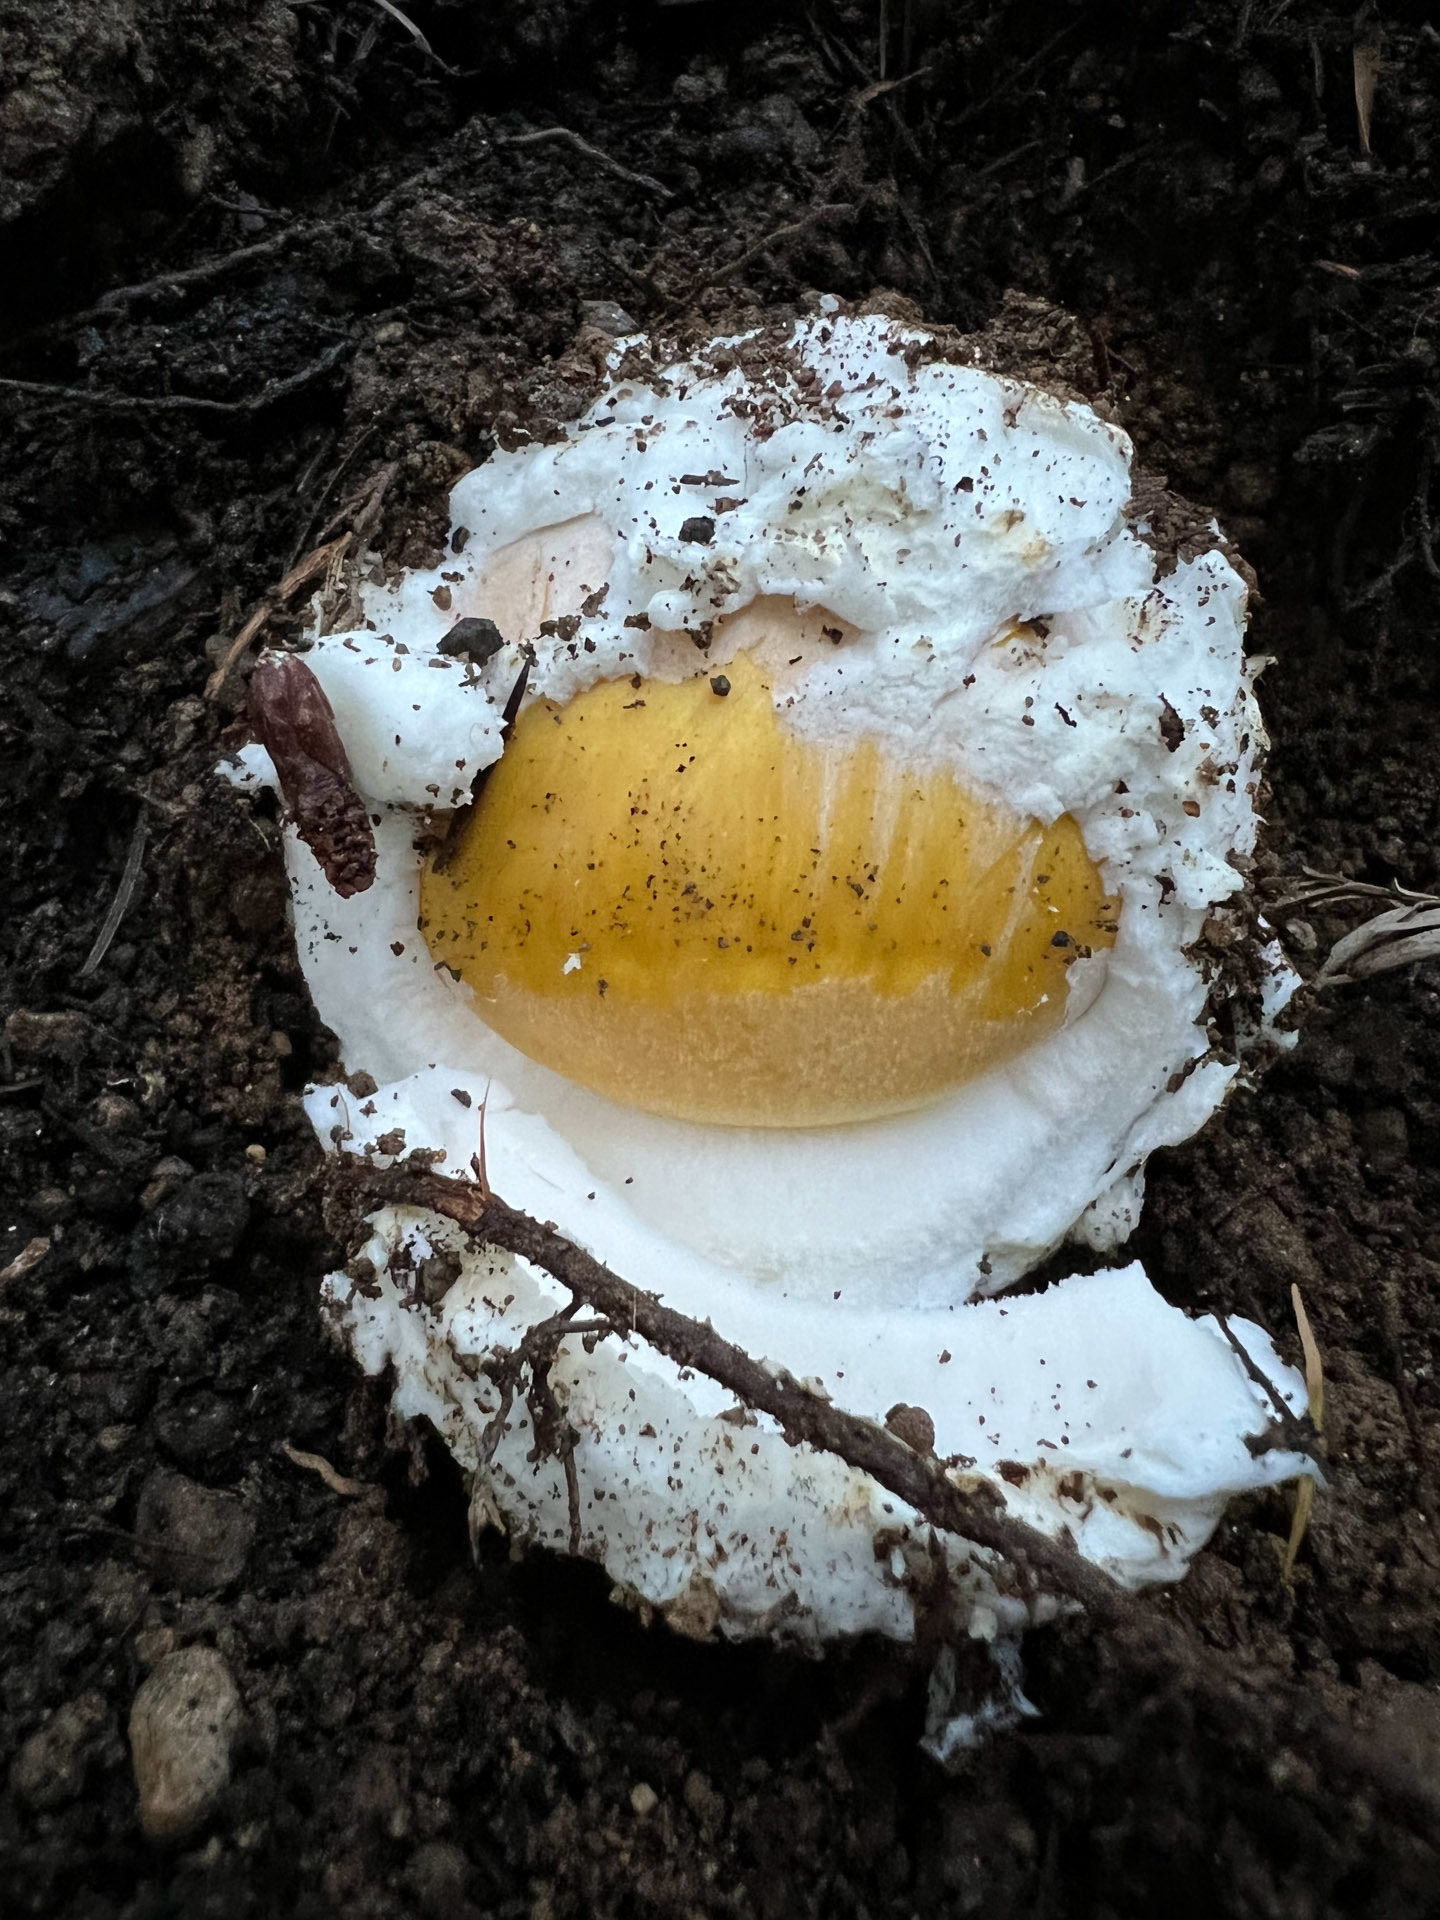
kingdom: Fungi
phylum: Basidiomycota
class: Agaricomycetes
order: Agaricales
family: Amanitaceae
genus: Amanita
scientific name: Amanita calyptroderma
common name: Coccora
